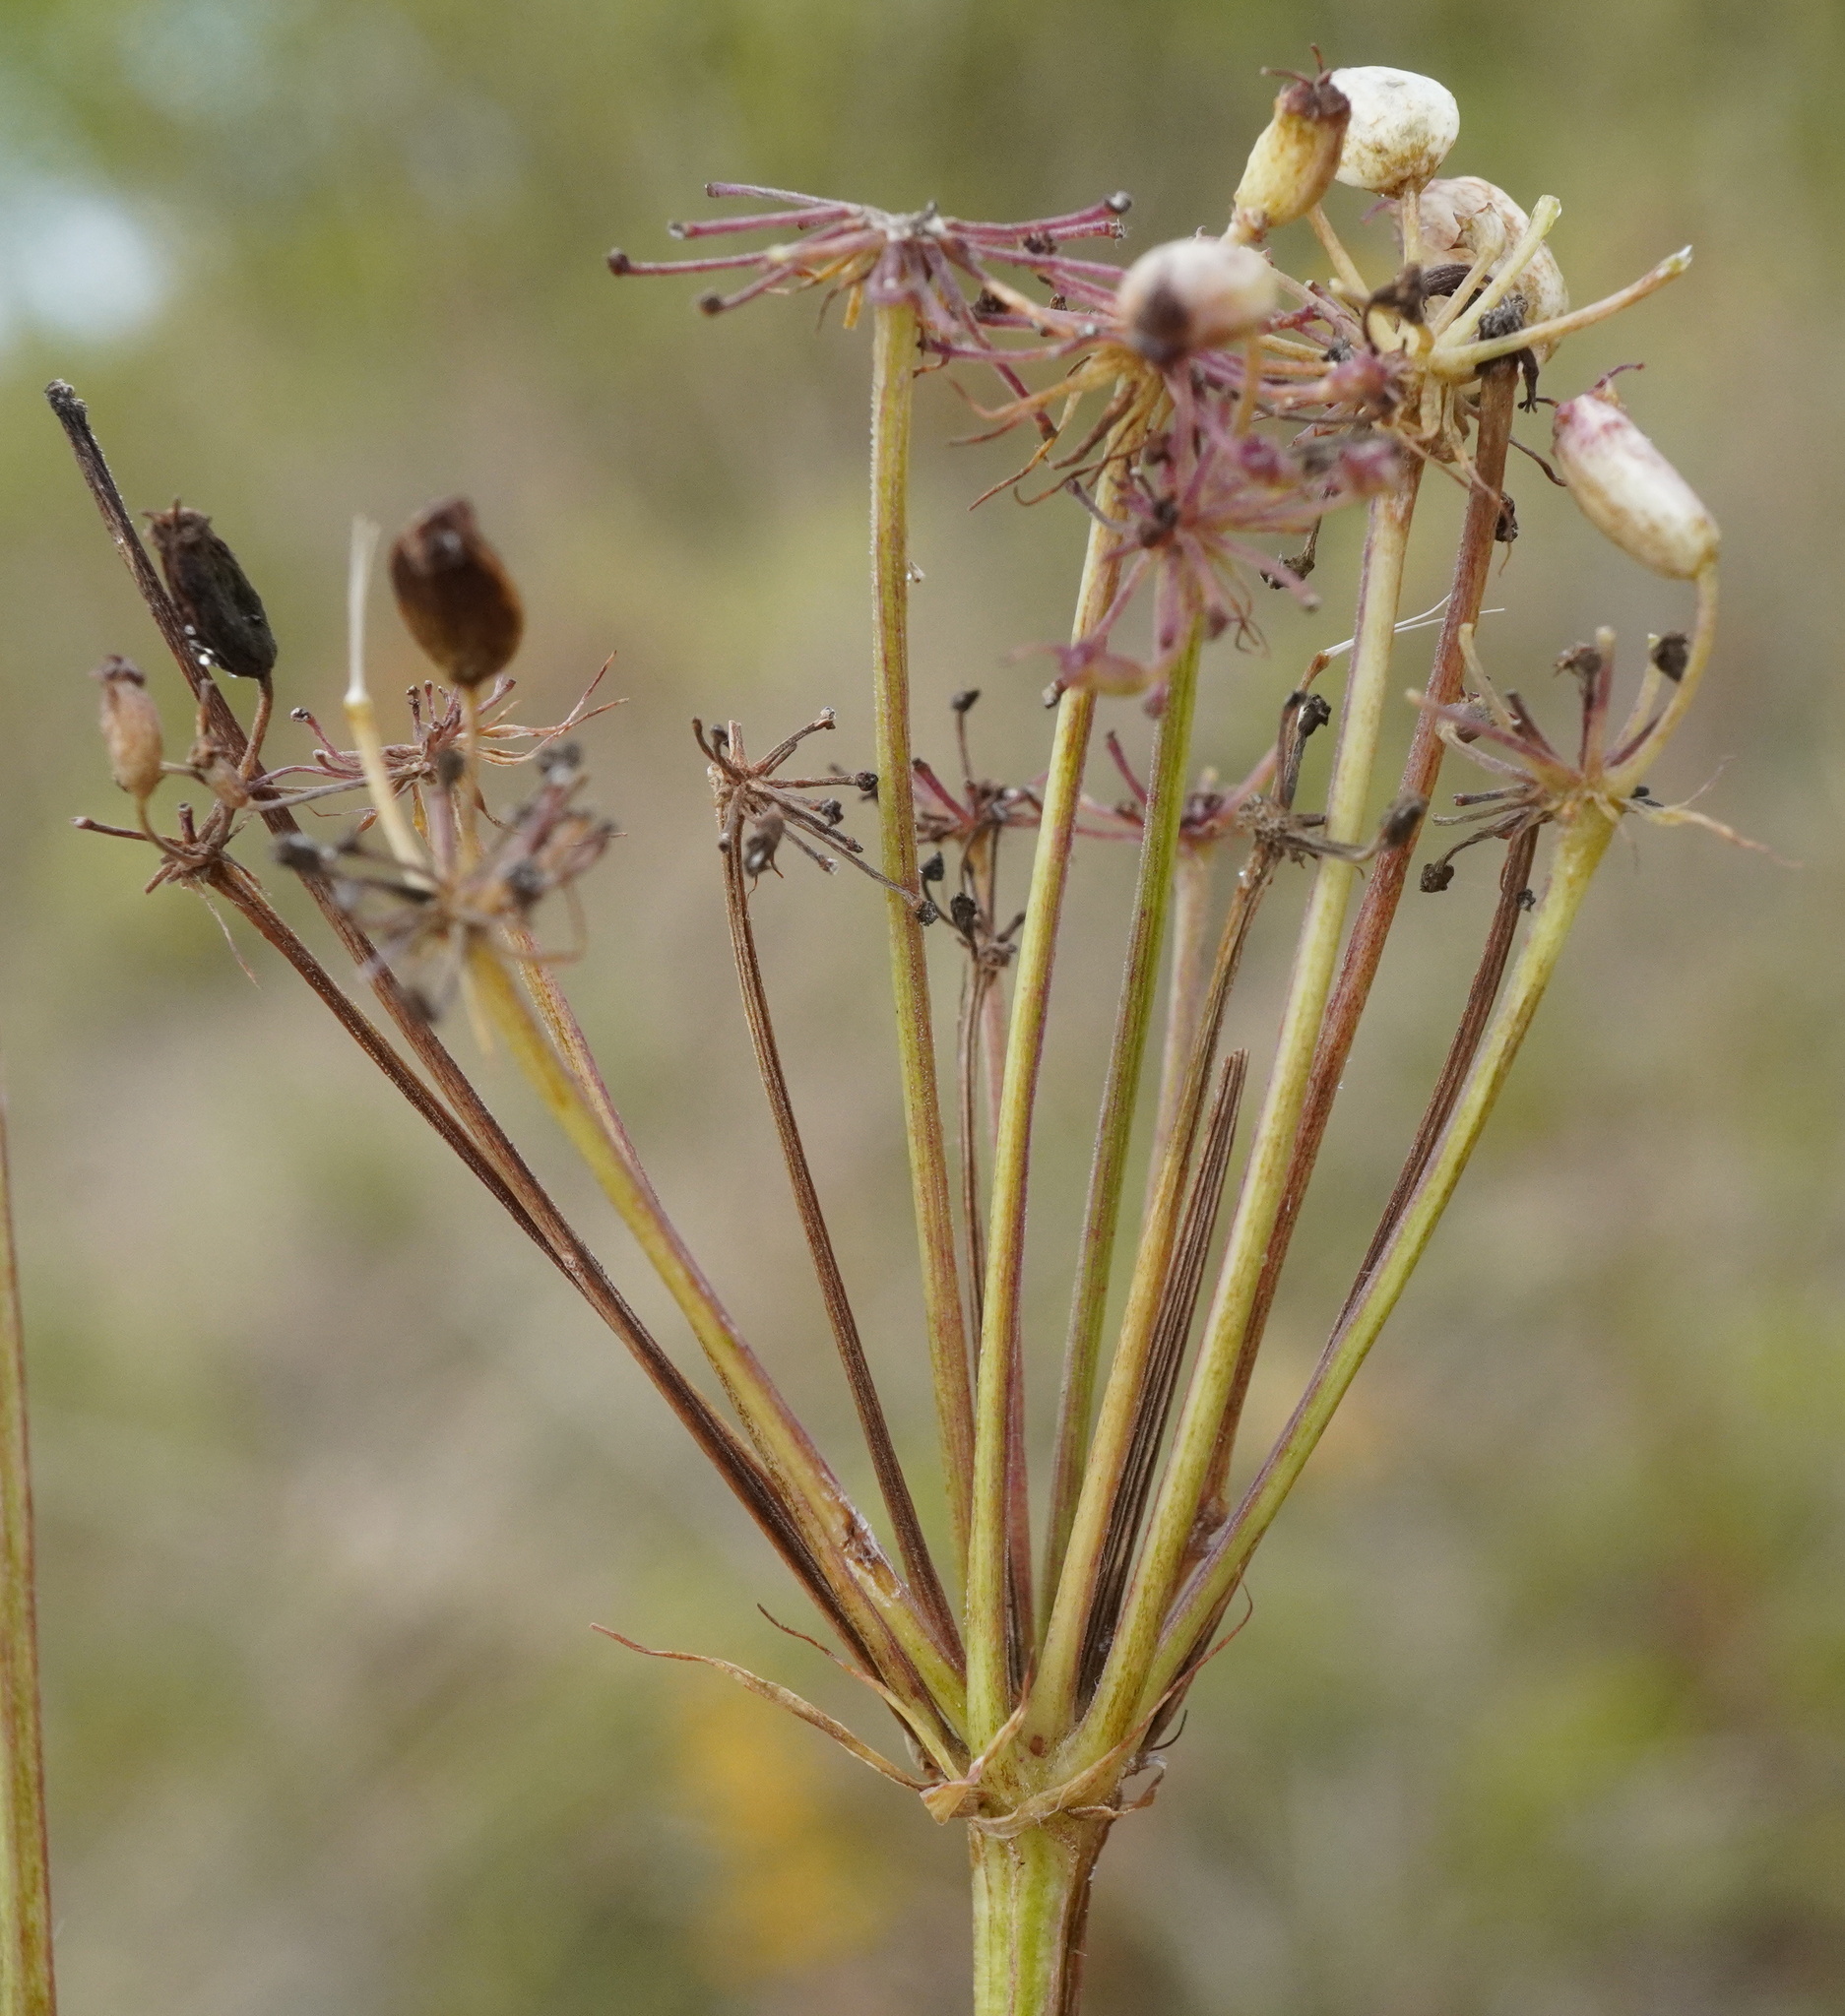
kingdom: Plantae
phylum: Tracheophyta
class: Magnoliopsida
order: Apiales
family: Apiaceae
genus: Cervaria
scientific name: Cervaria rivini
